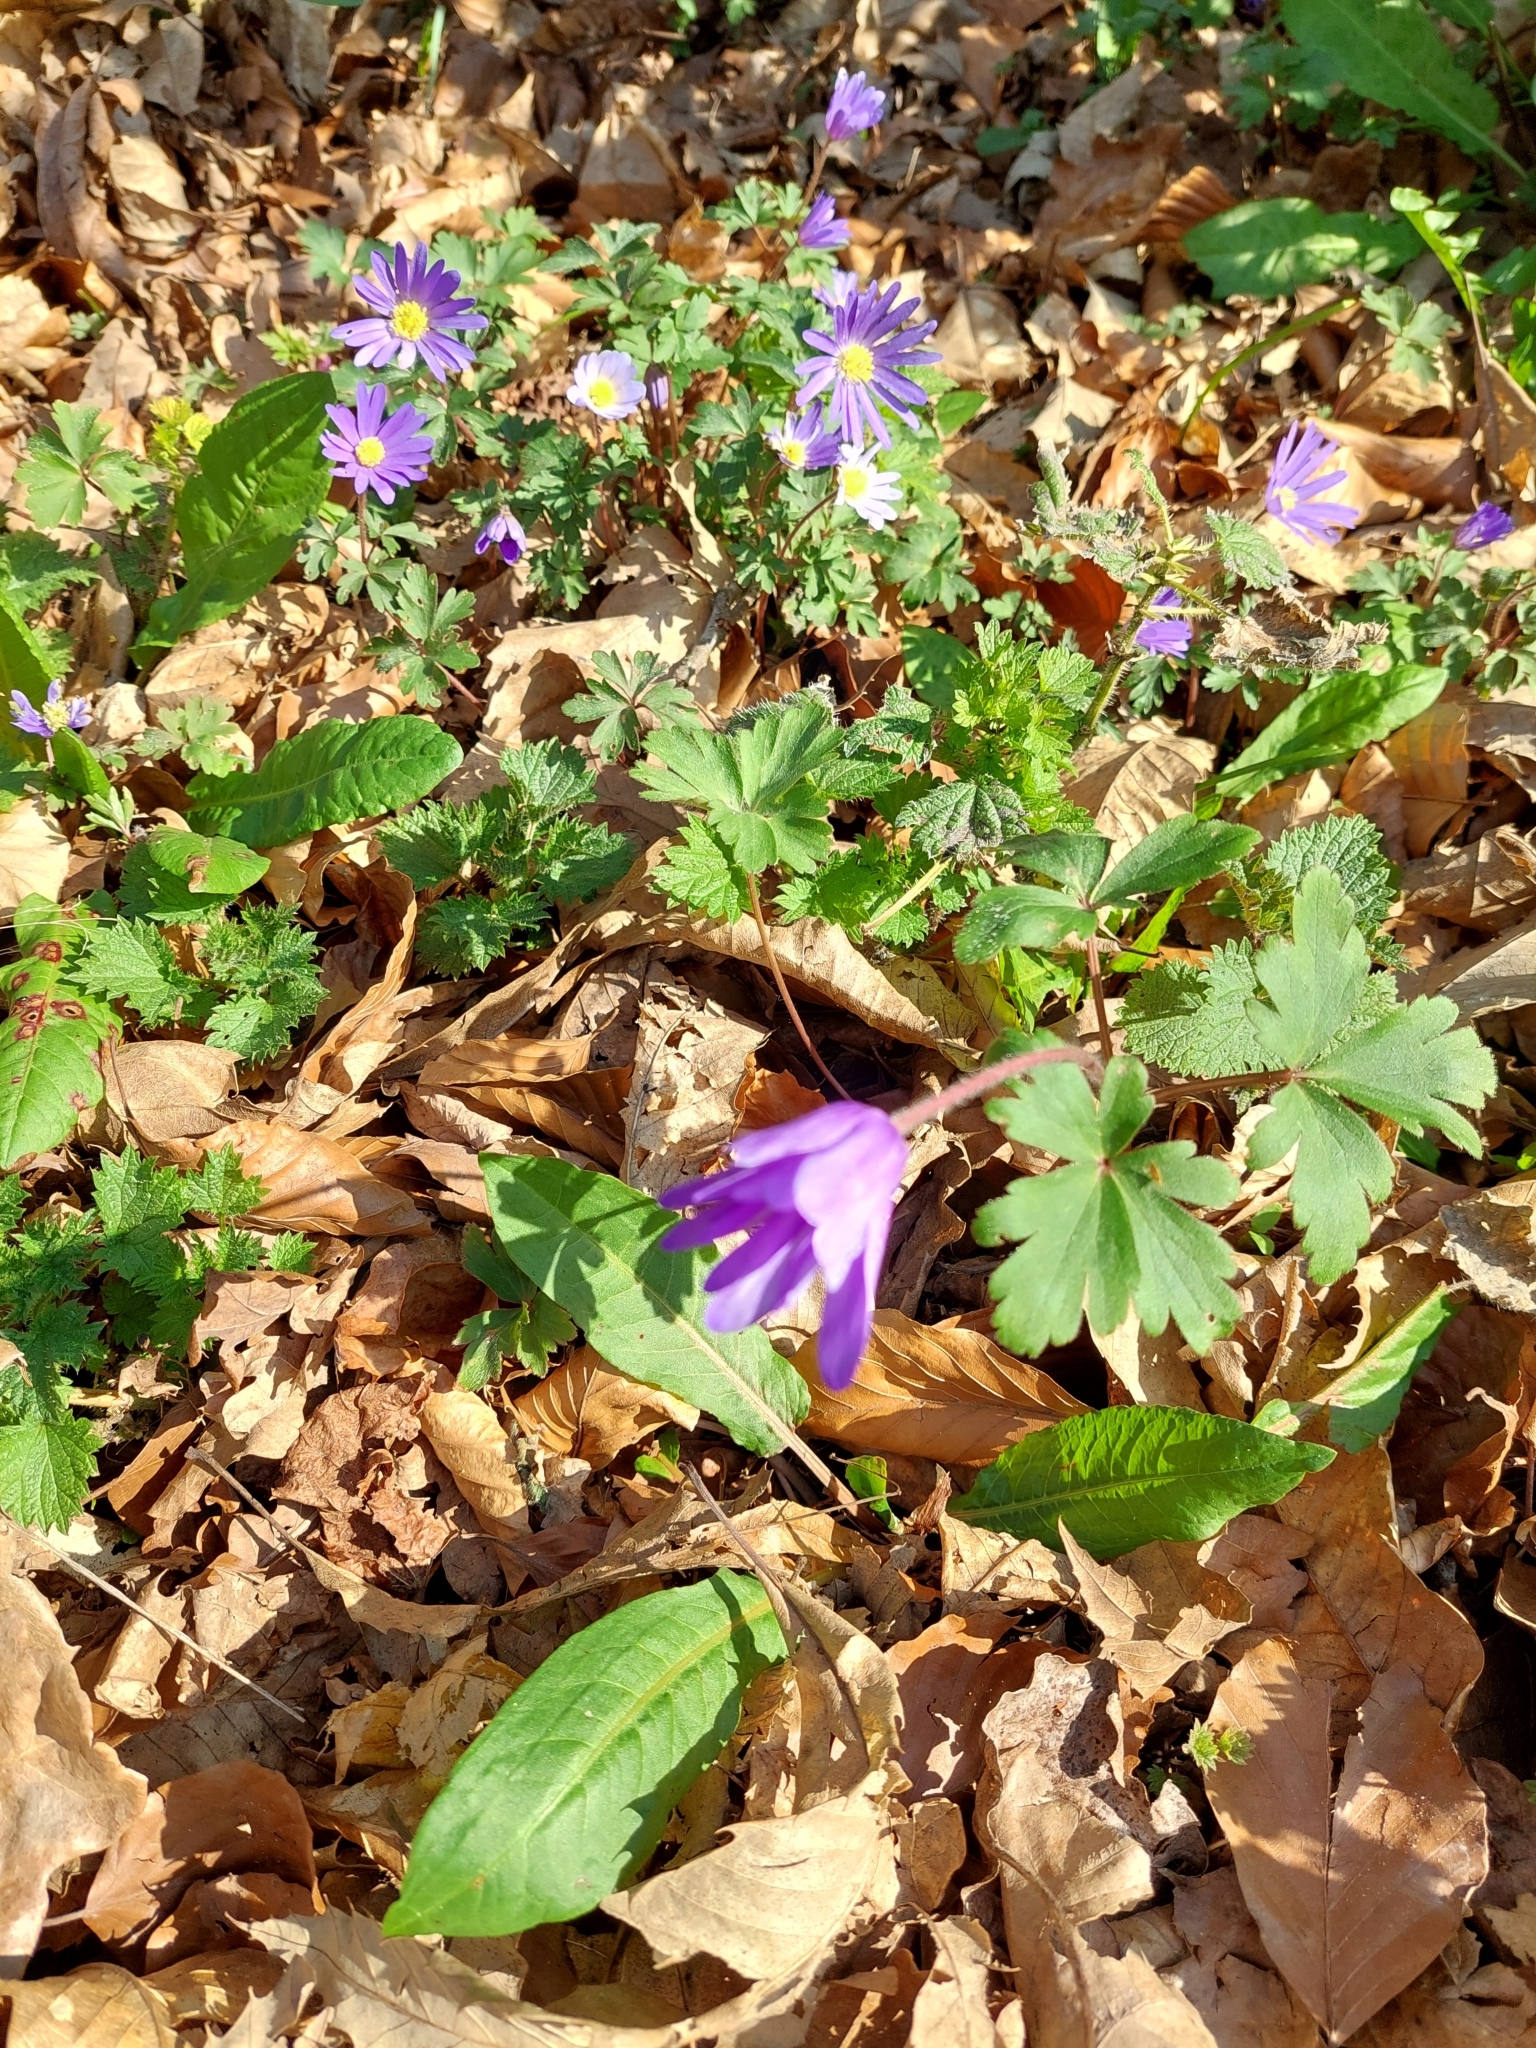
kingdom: Plantae
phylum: Tracheophyta
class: Magnoliopsida
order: Ranunculales
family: Ranunculaceae
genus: Anemone
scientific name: Anemone blanda
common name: Balkan anemone
